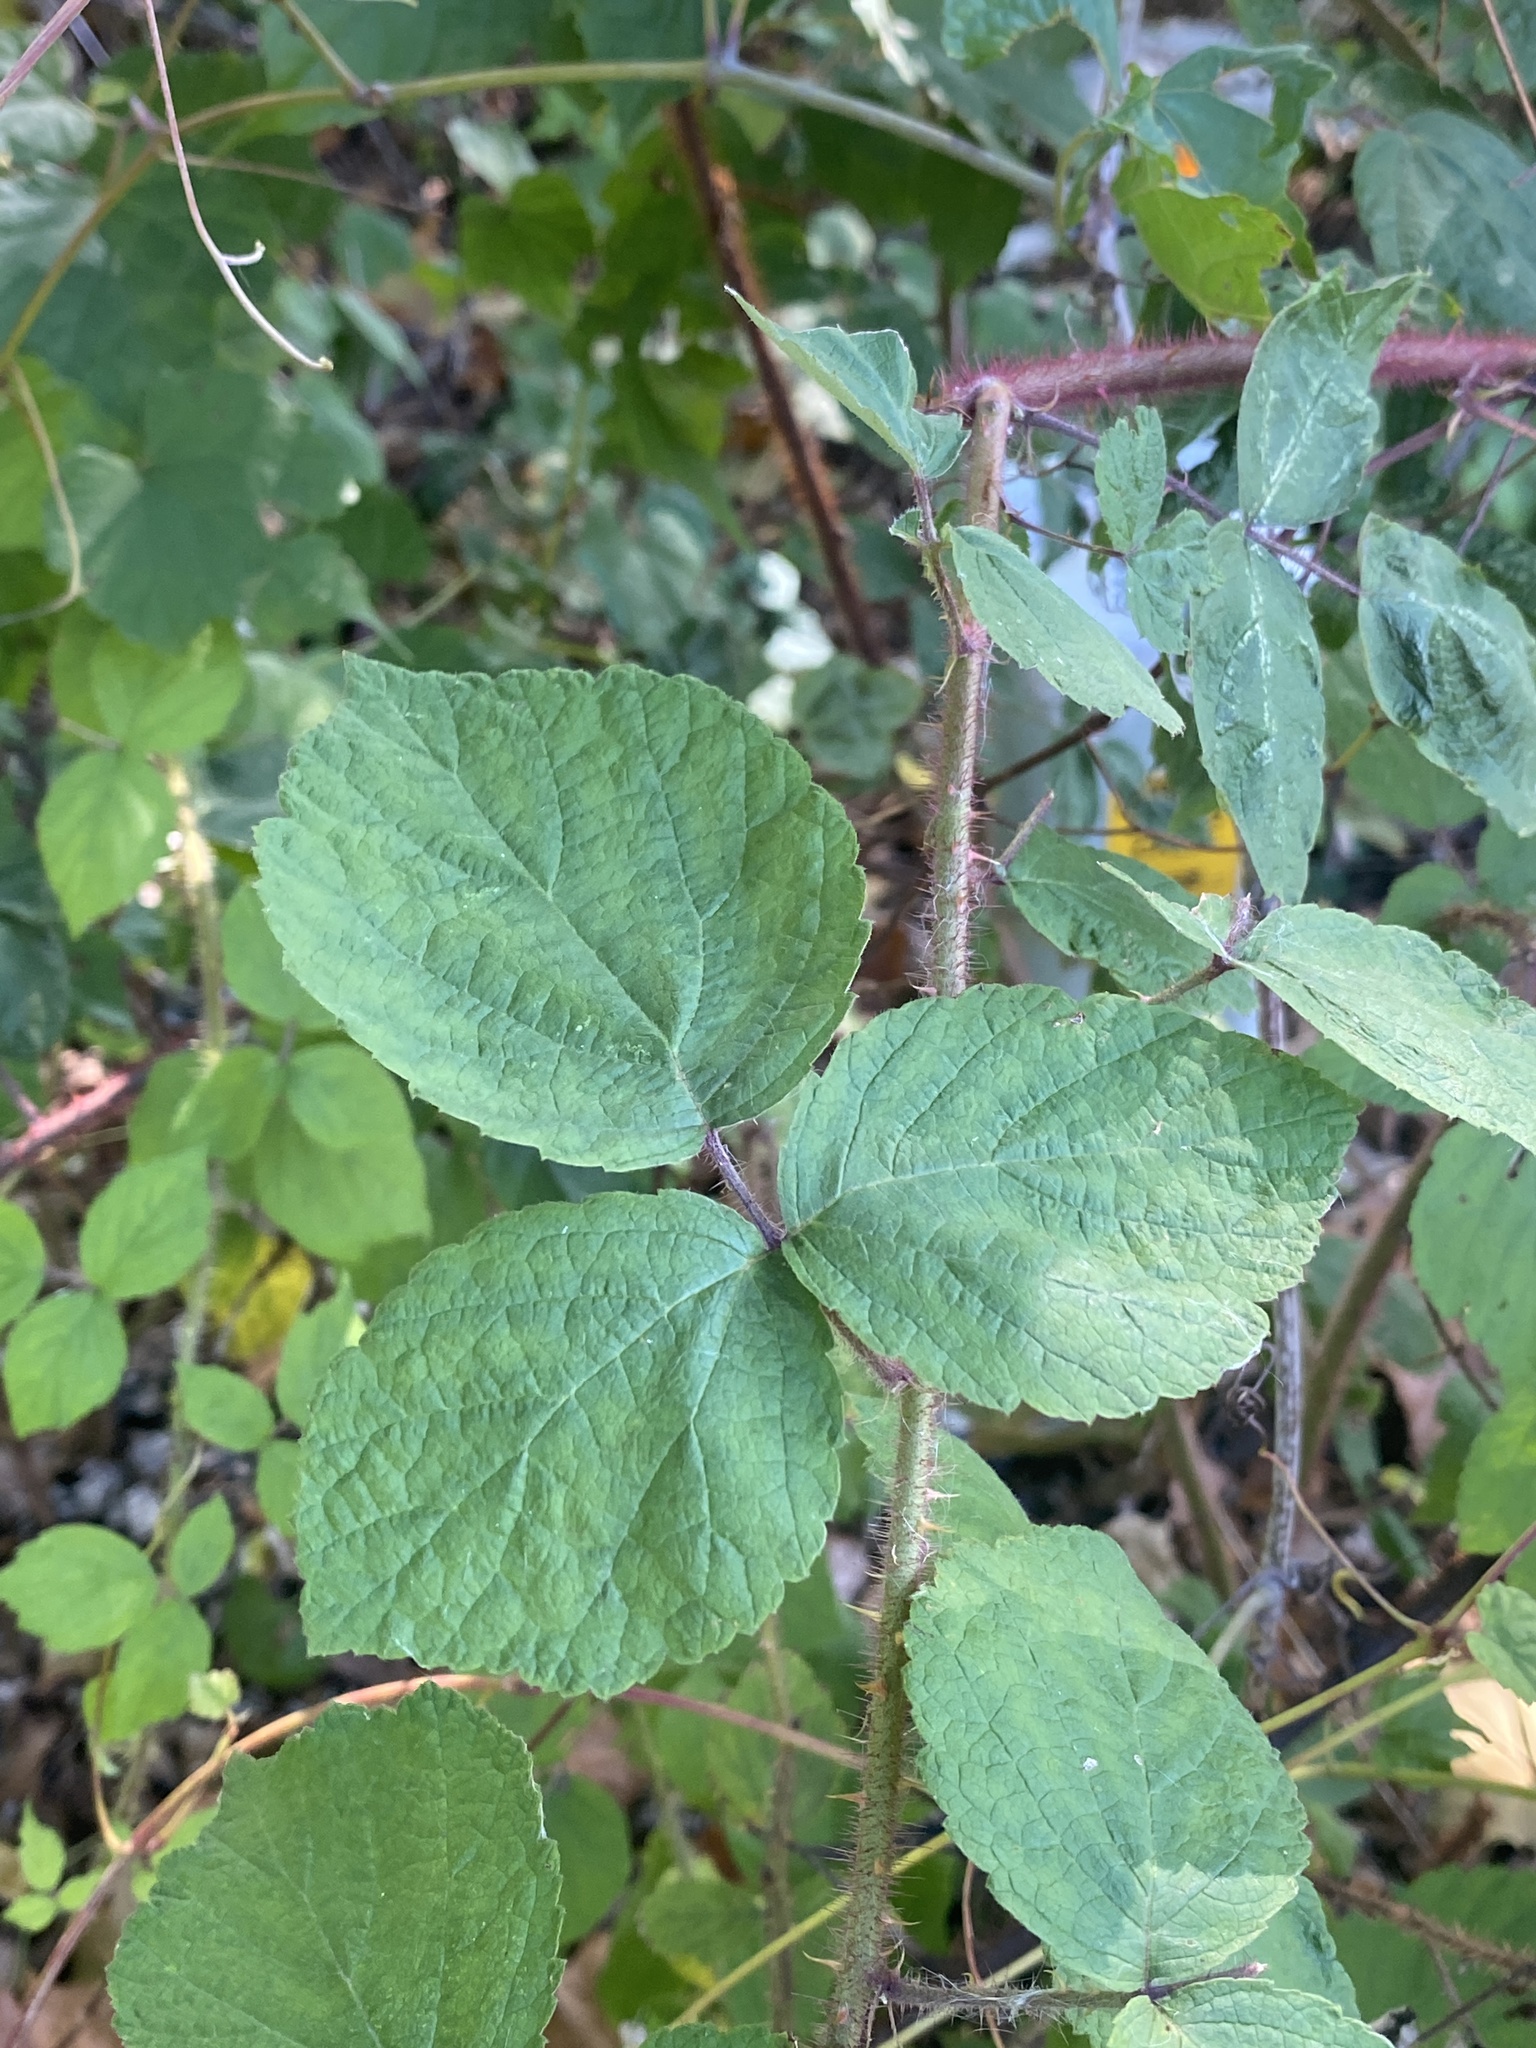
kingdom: Plantae
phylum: Tracheophyta
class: Magnoliopsida
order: Rosales
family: Rosaceae
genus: Rubus
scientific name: Rubus phoenicolasius
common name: Japanese wineberry
